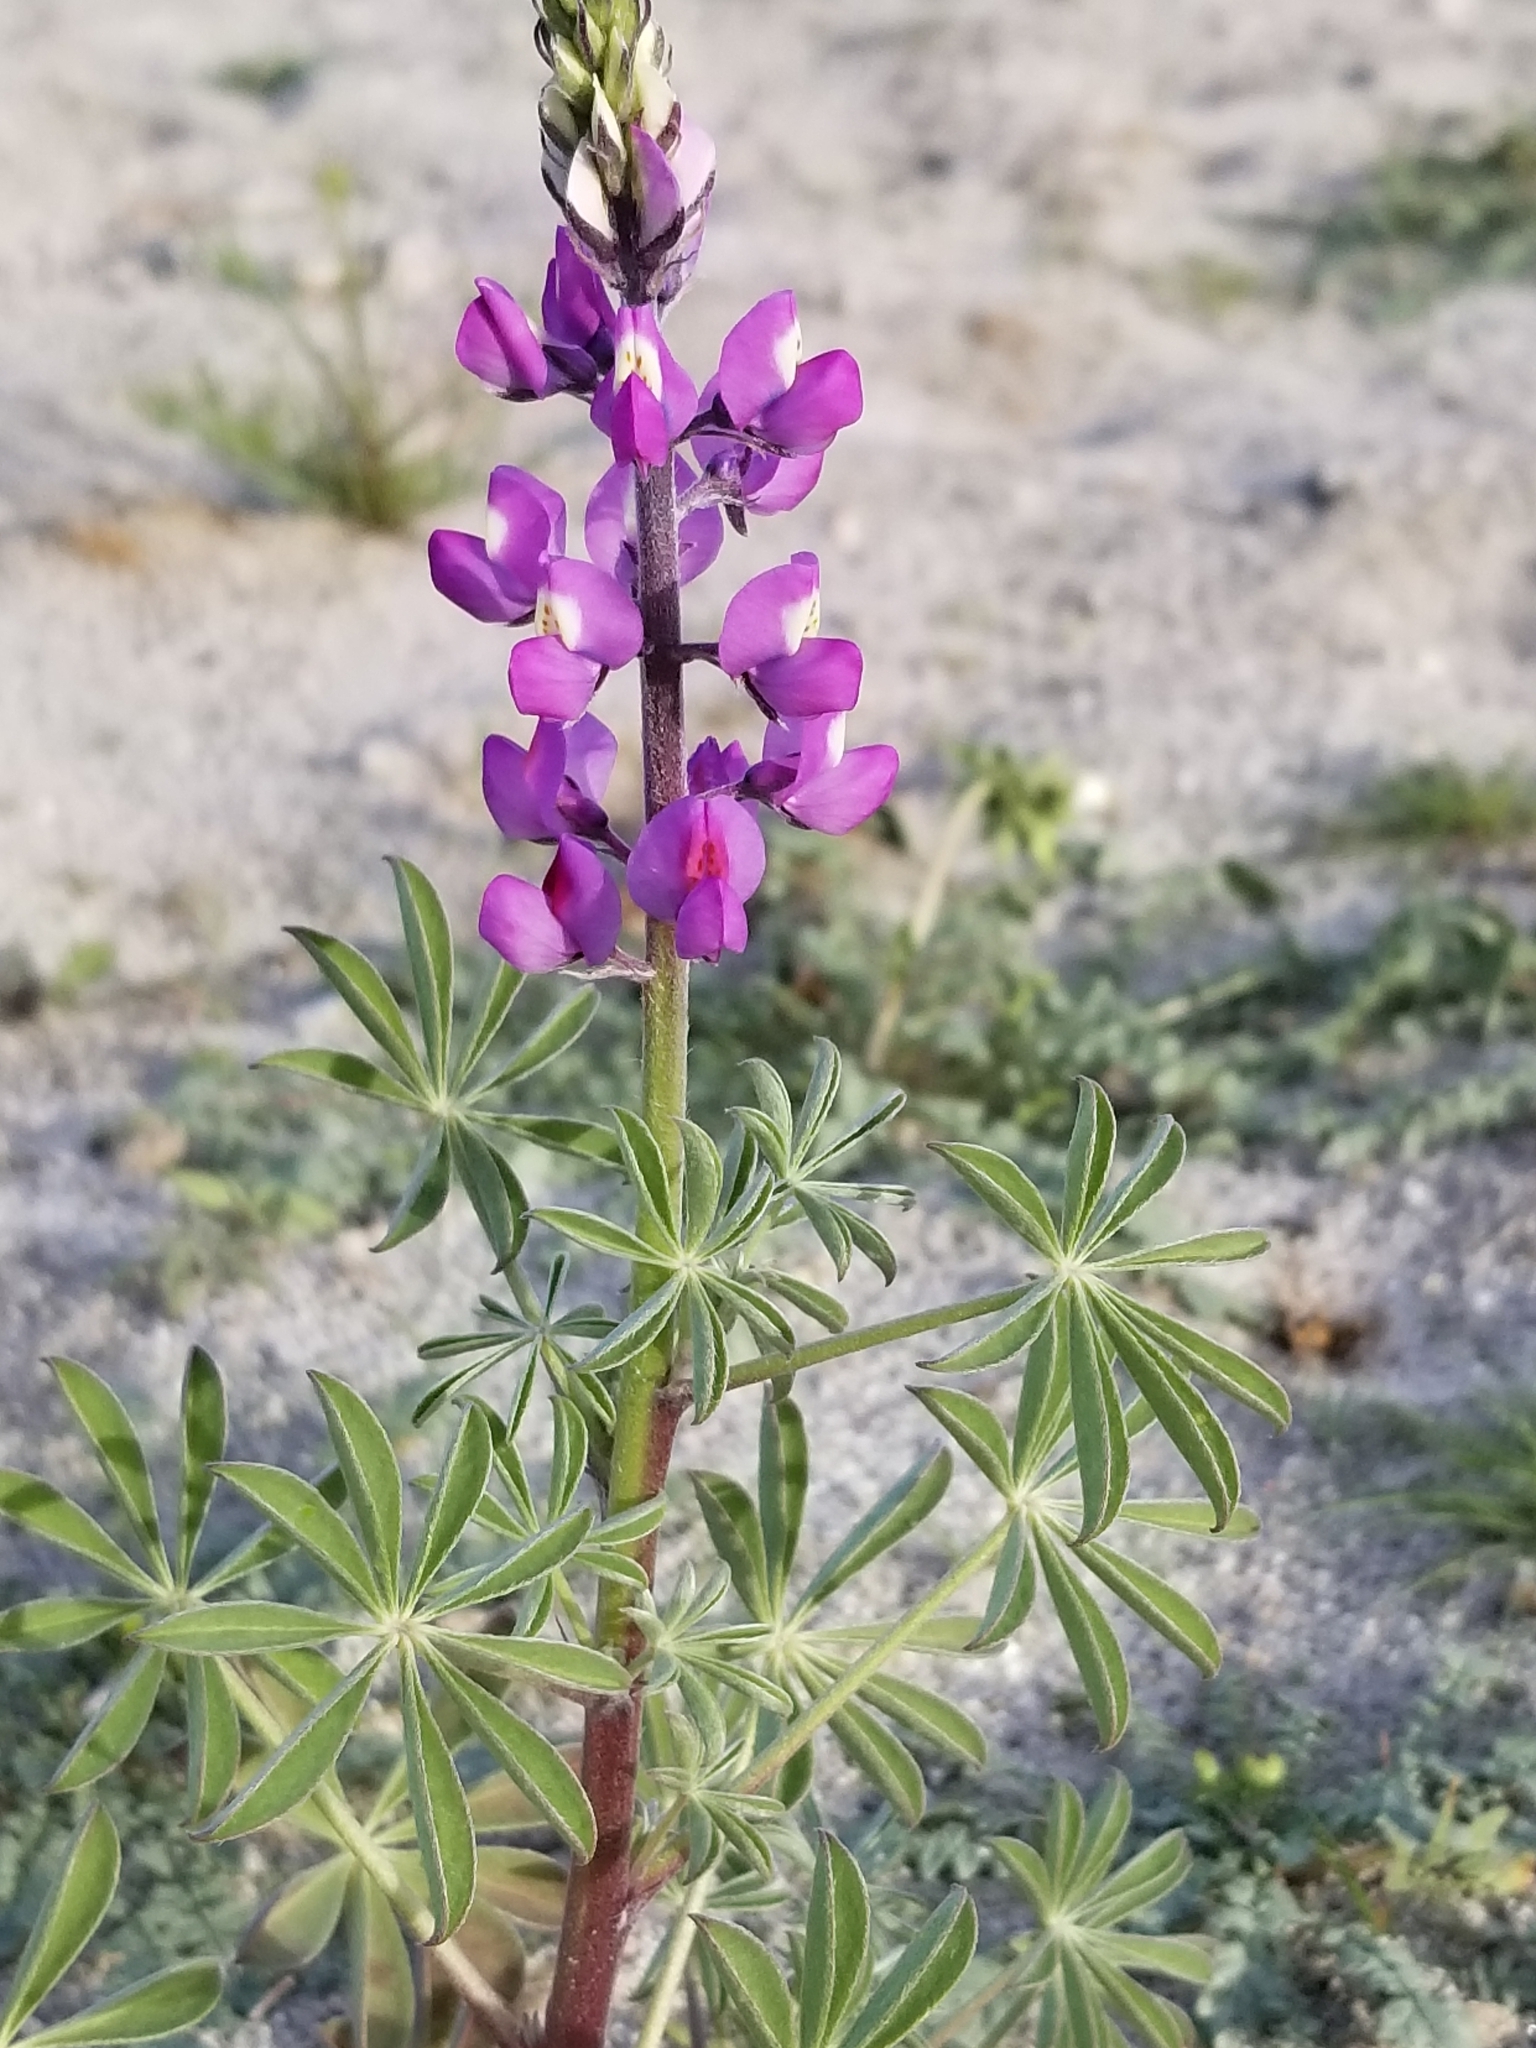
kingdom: Plantae
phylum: Tracheophyta
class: Magnoliopsida
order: Fabales
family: Fabaceae
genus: Lupinus
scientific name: Lupinus arizonicus
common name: Arizona lupine
